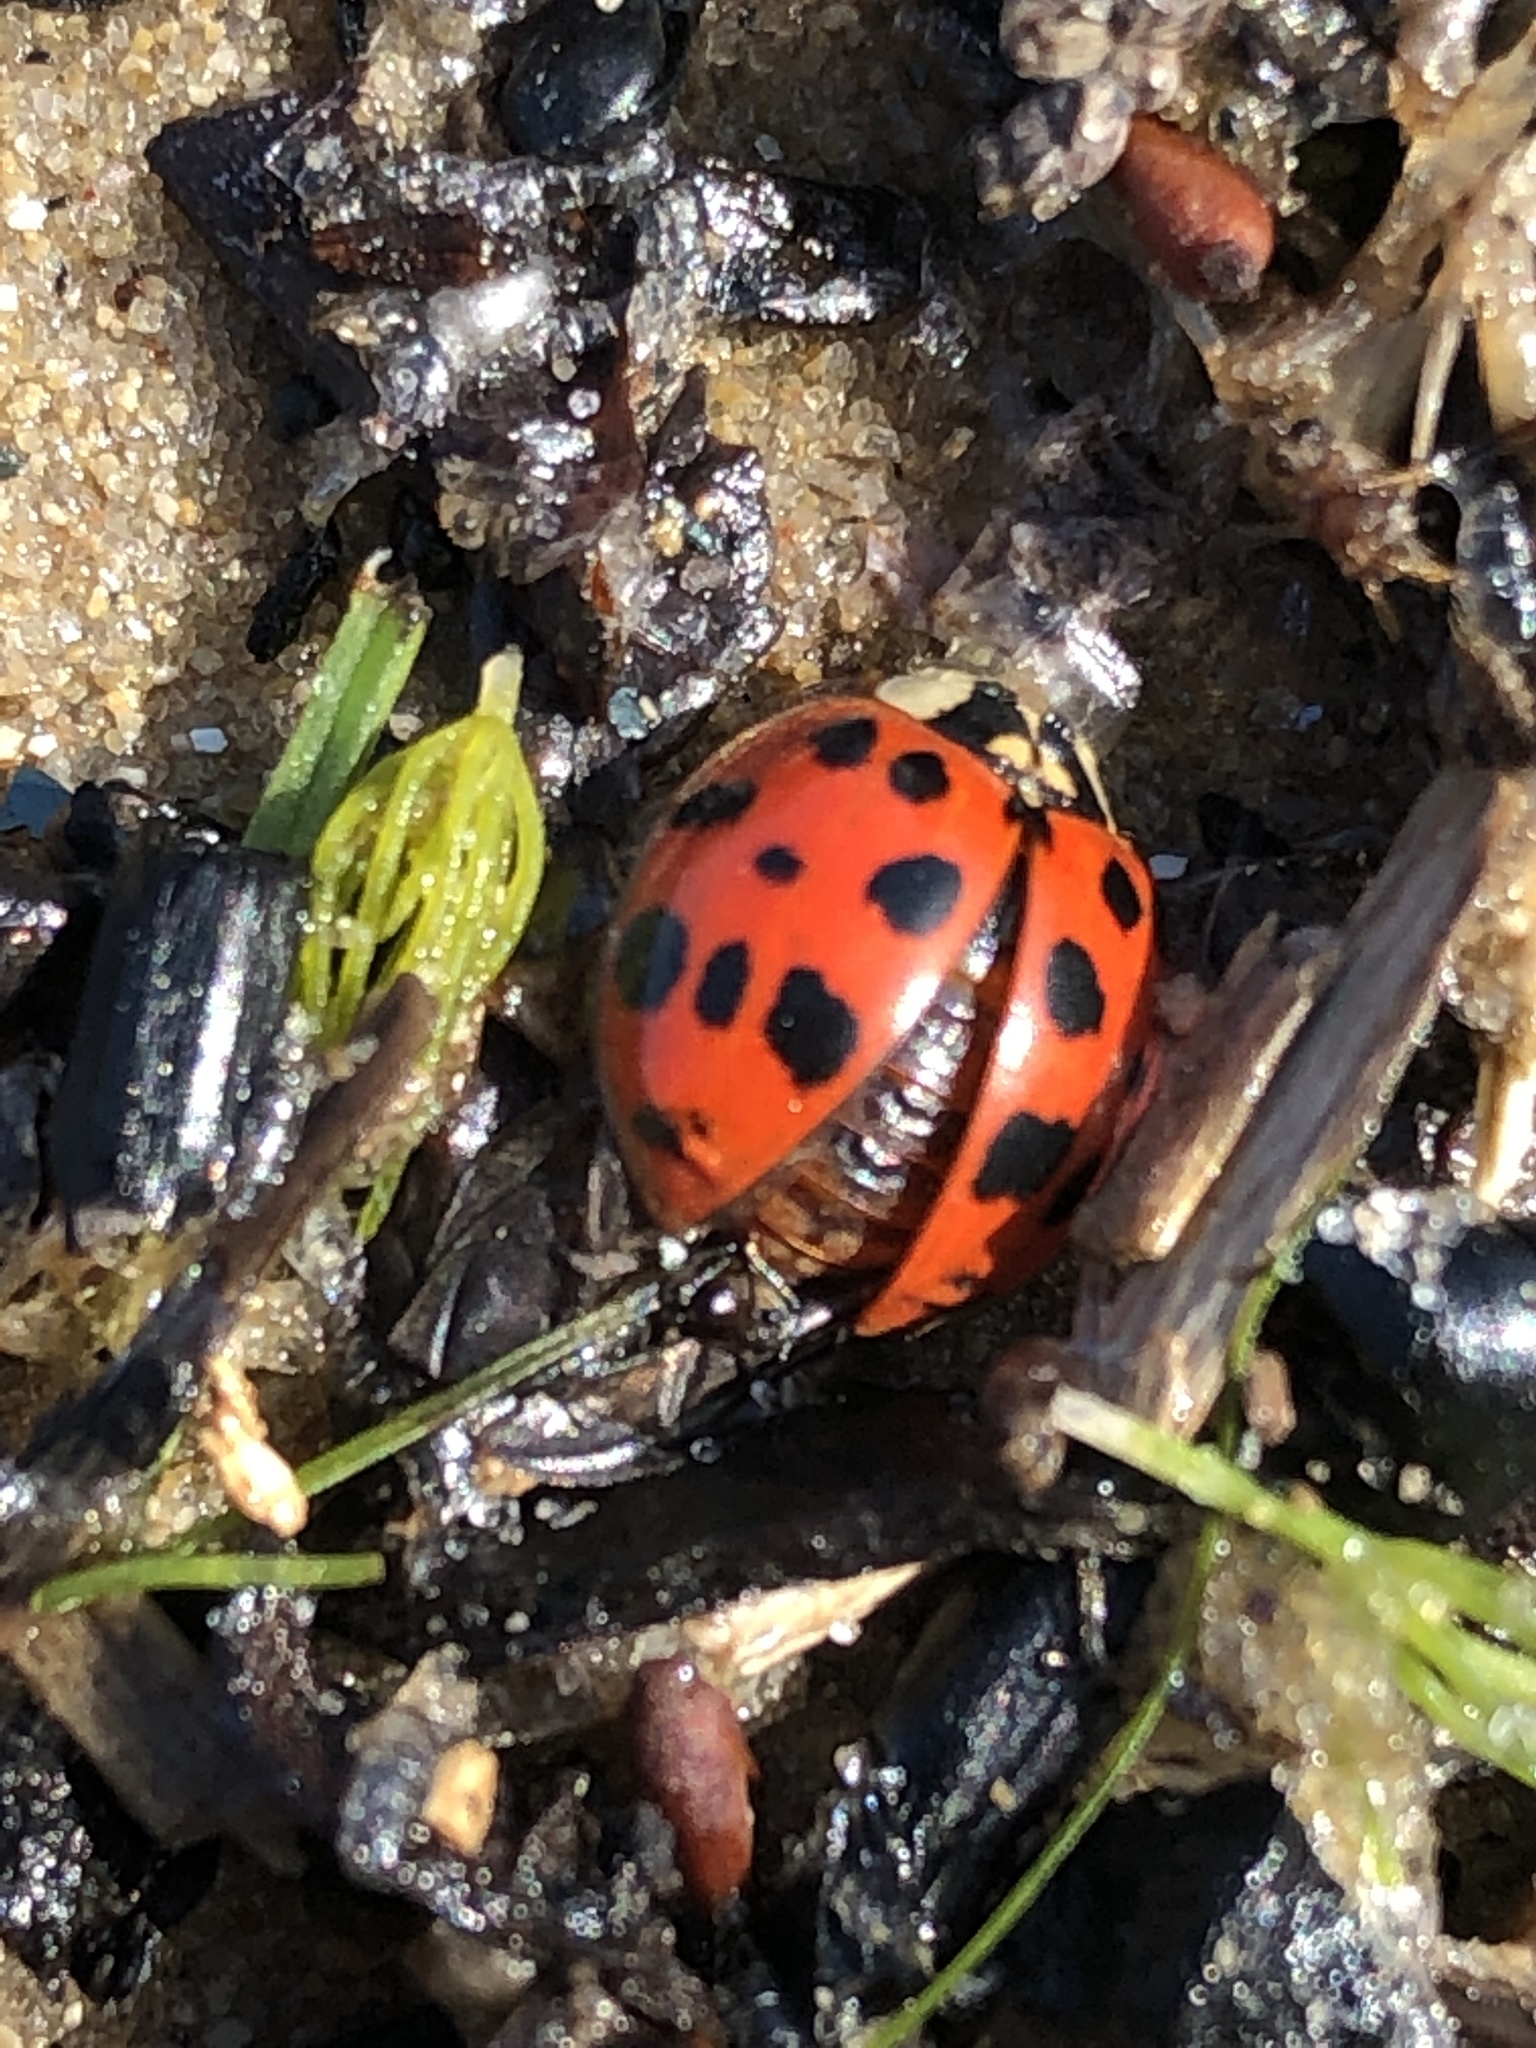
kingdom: Animalia
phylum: Arthropoda
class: Insecta
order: Coleoptera
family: Coccinellidae
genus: Harmonia
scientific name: Harmonia axyridis
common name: Harlequin ladybird
